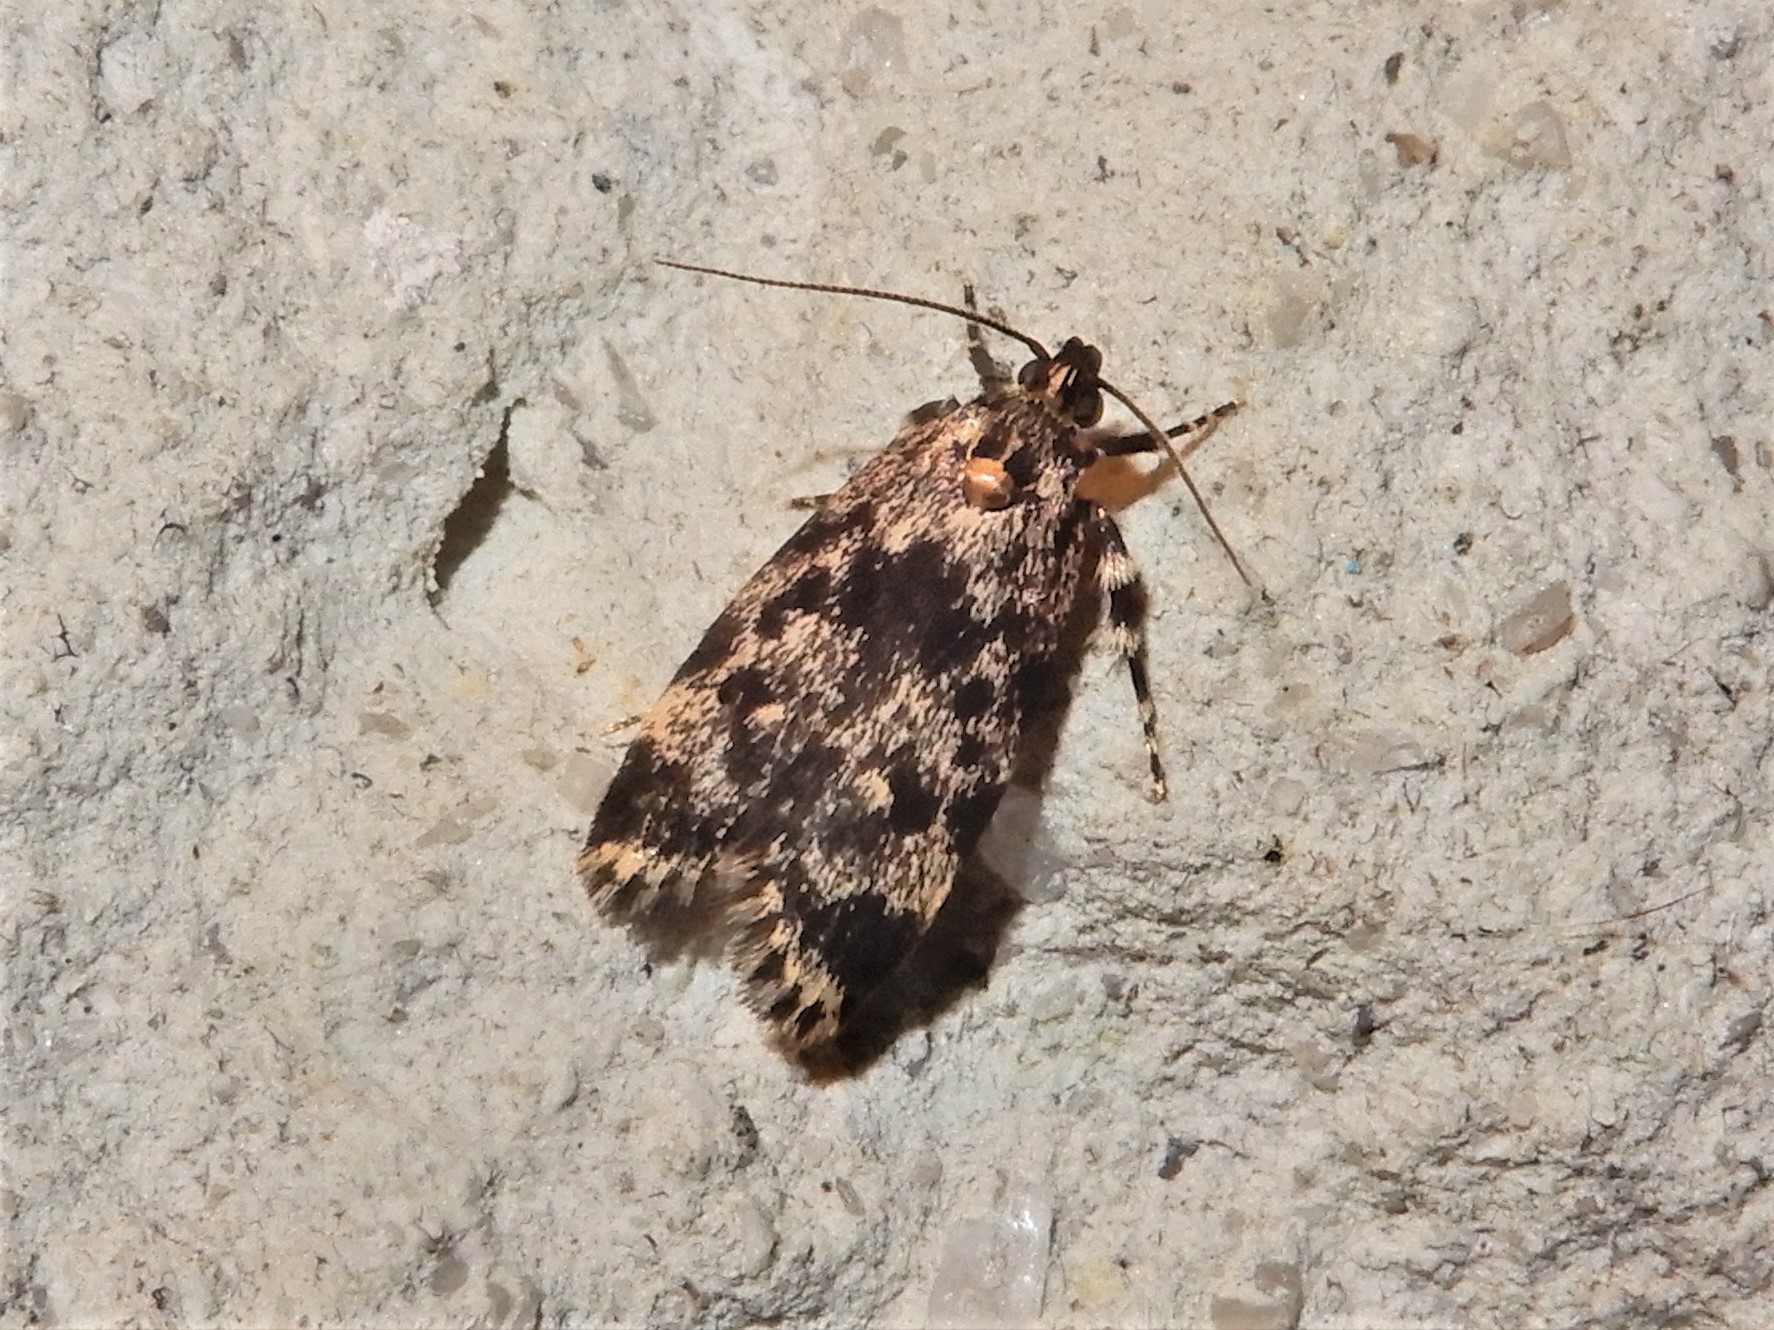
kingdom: Animalia
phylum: Arthropoda
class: Insecta
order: Lepidoptera
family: Oecophoridae
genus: Barea
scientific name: Barea codrella
